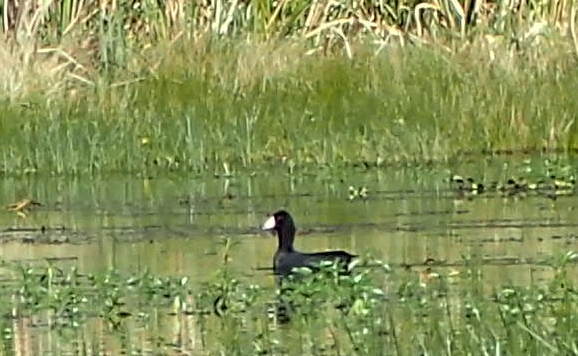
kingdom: Animalia
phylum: Chordata
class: Aves
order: Gruiformes
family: Rallidae
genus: Fulica
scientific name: Fulica americana
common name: American coot
